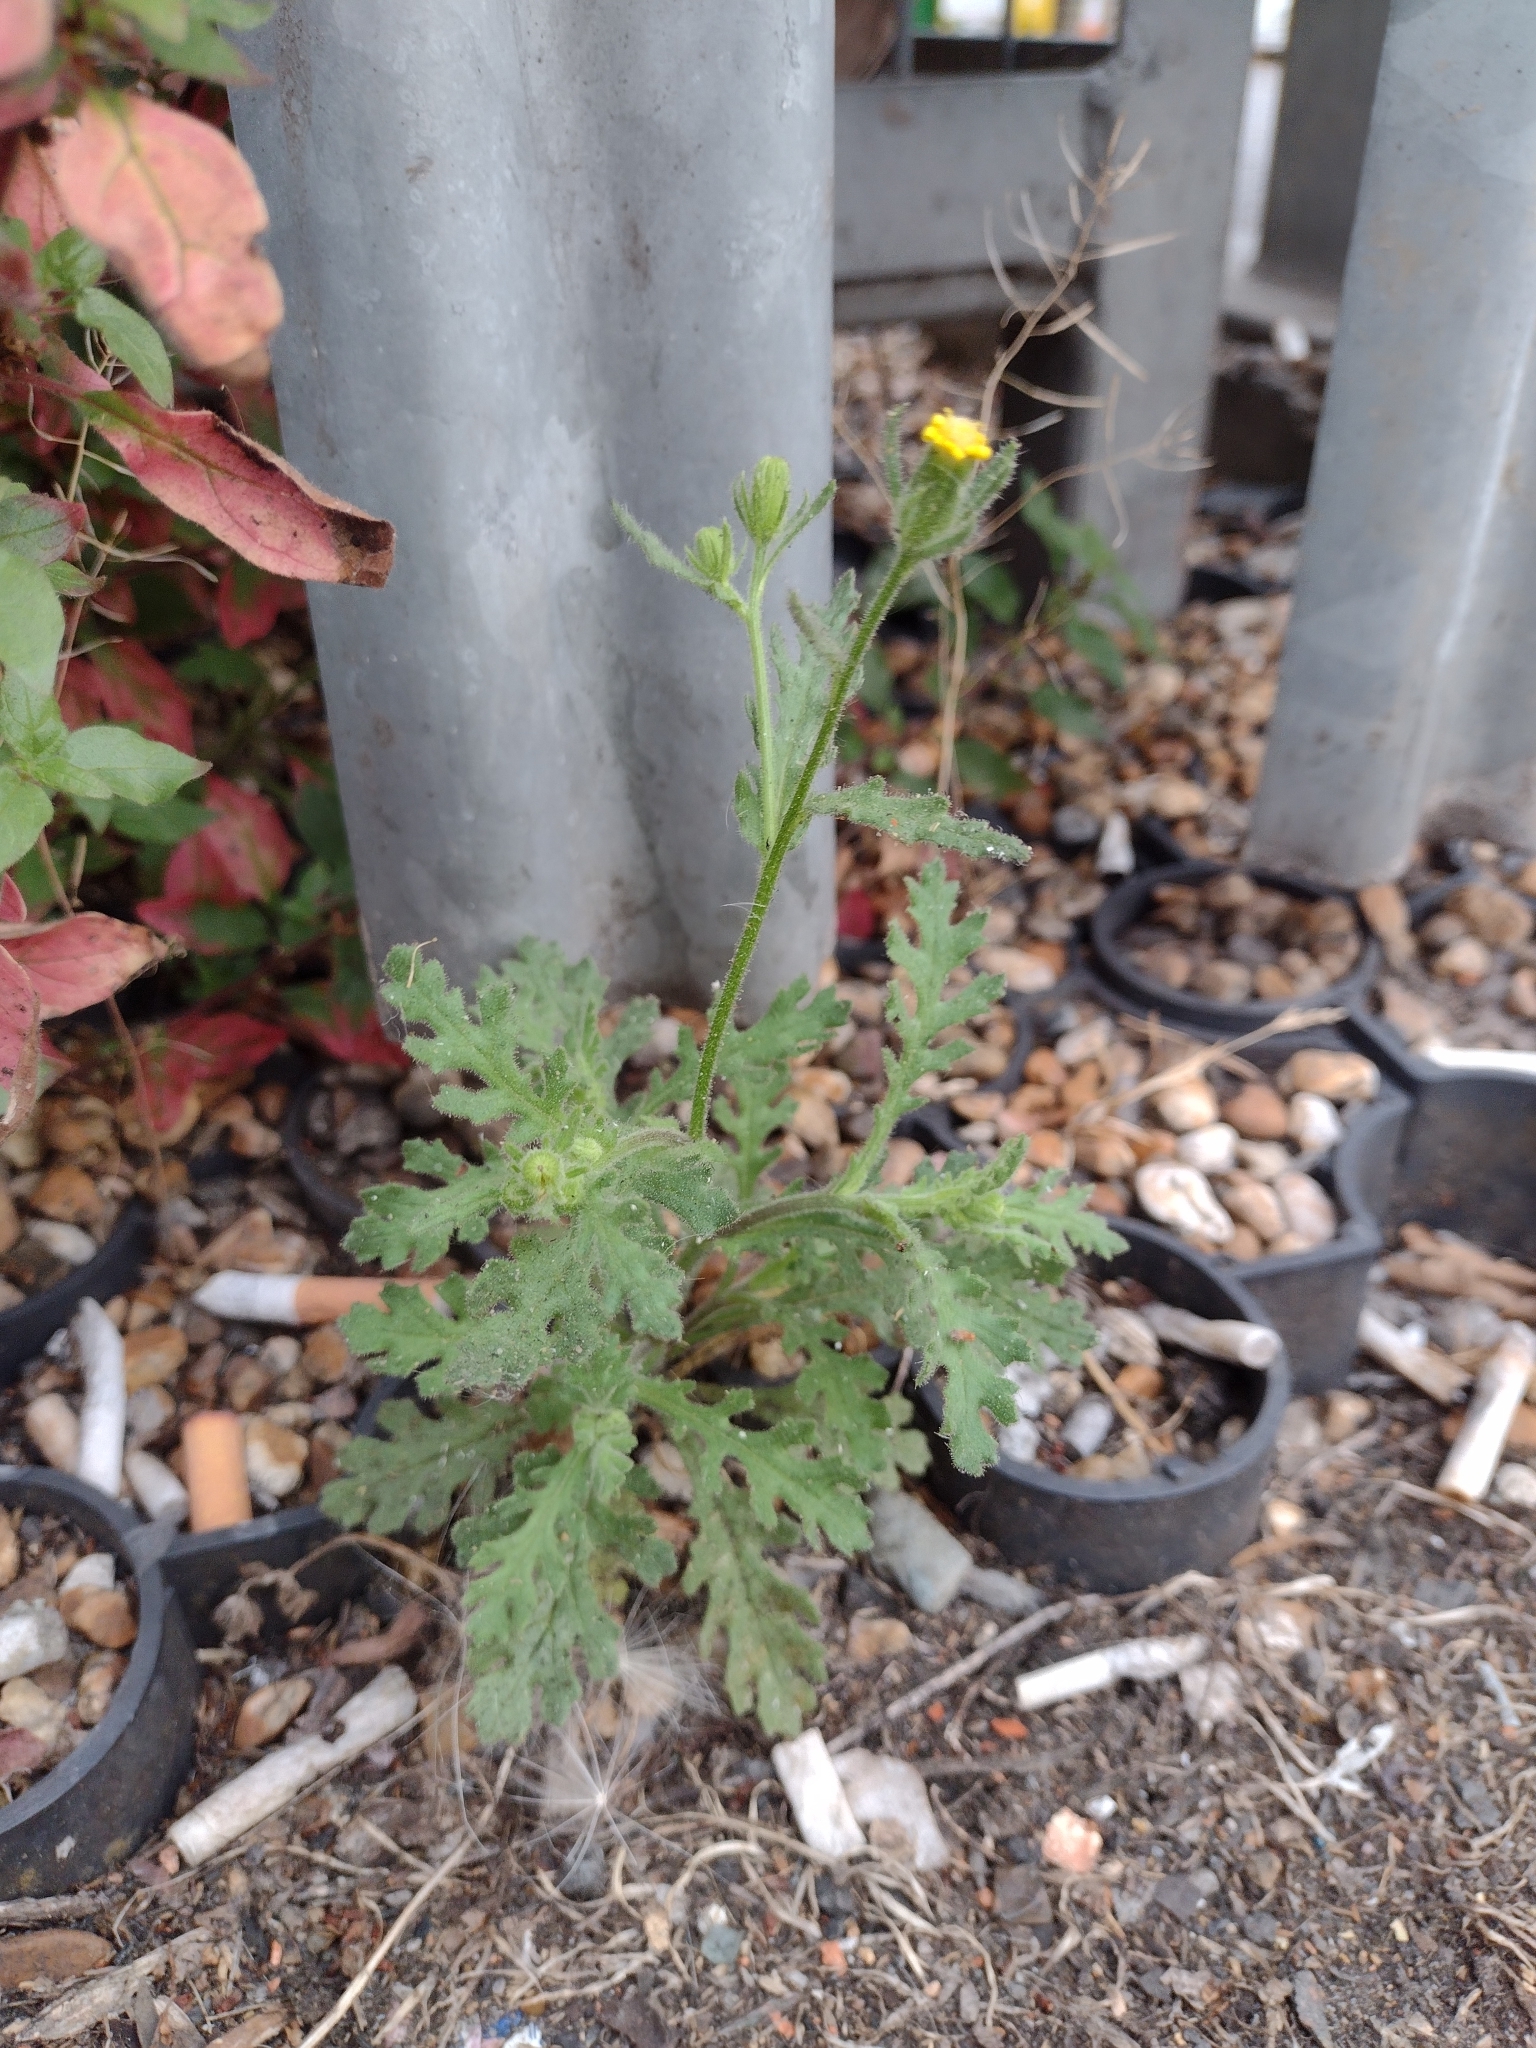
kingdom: Plantae
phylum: Tracheophyta
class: Magnoliopsida
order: Asterales
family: Asteraceae
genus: Senecio
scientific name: Senecio viscosus
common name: Sticky groundsel
